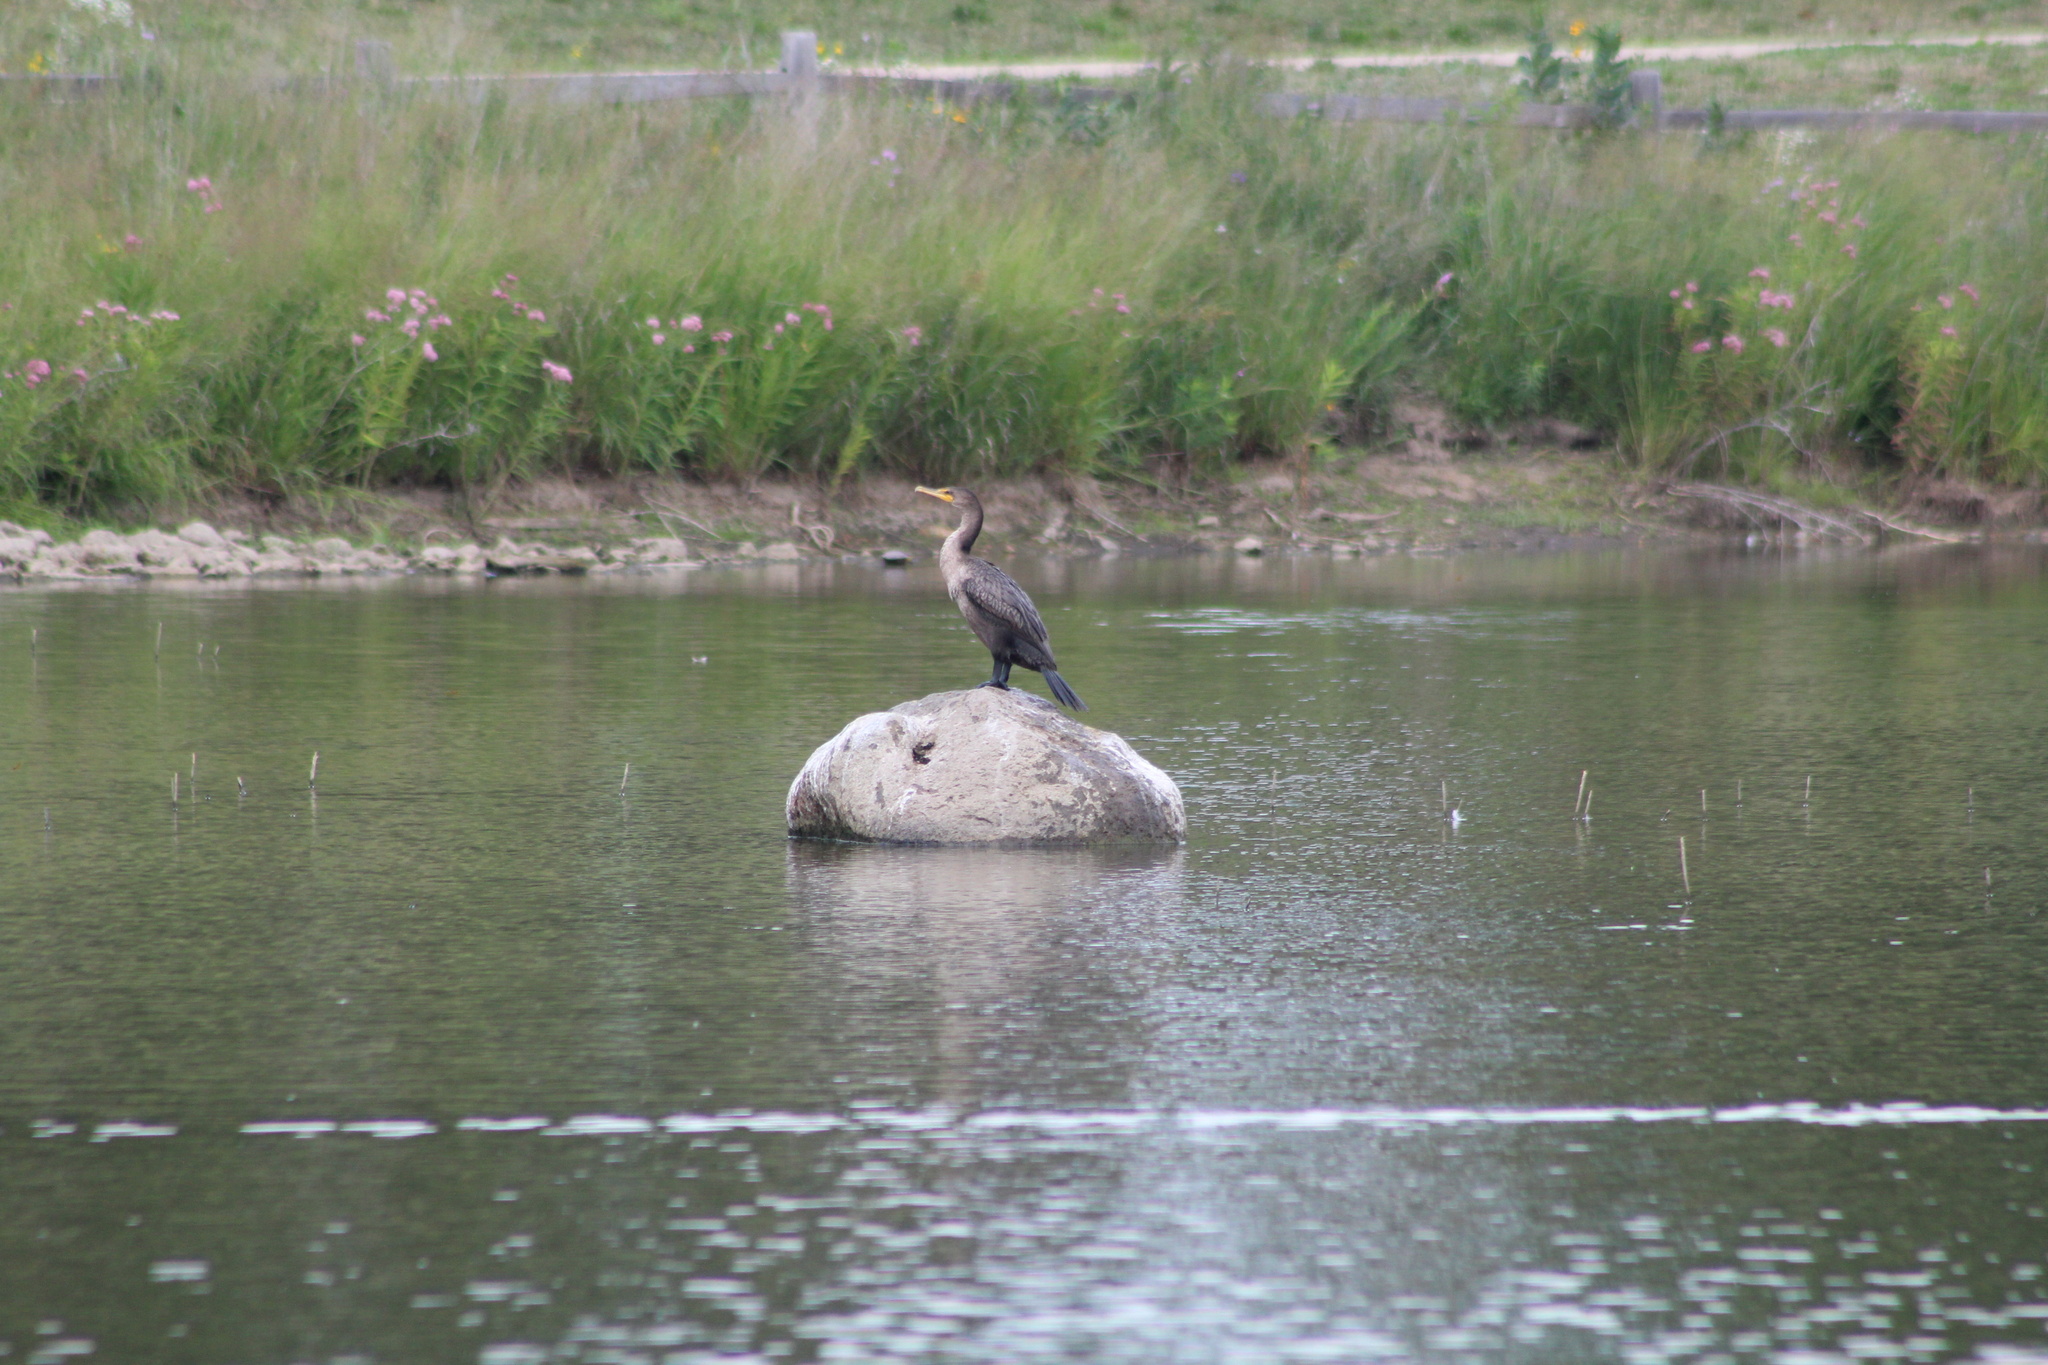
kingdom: Animalia
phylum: Chordata
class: Aves
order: Suliformes
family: Phalacrocoracidae
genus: Phalacrocorax
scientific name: Phalacrocorax auritus
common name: Double-crested cormorant
